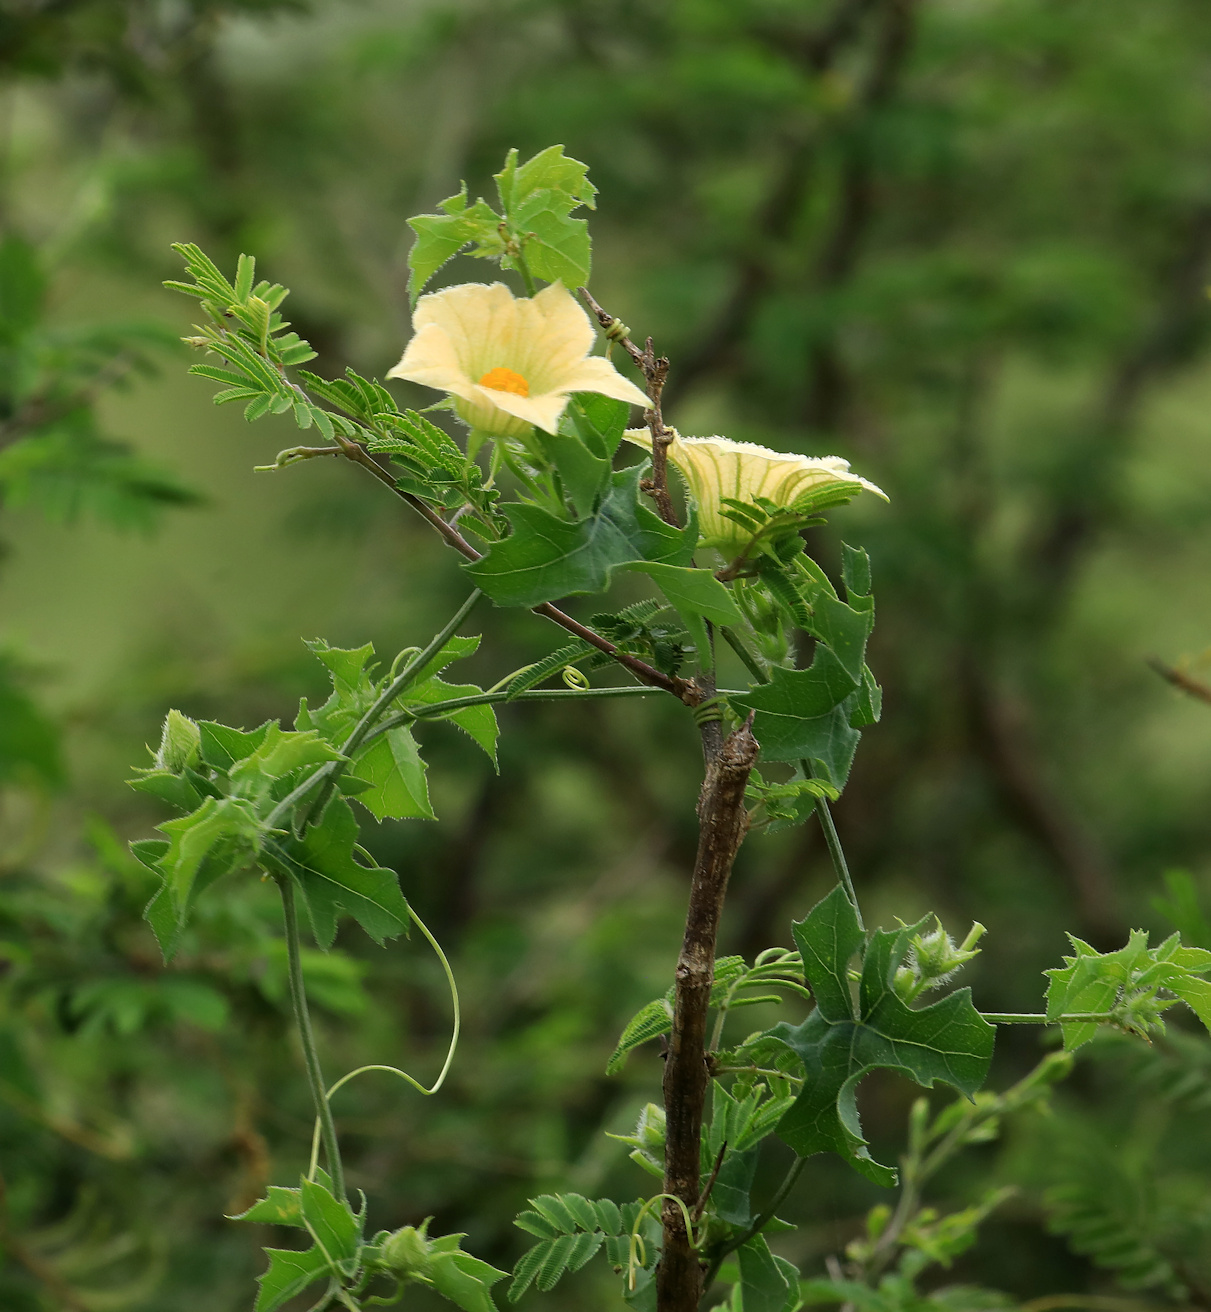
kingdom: Plantae
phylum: Tracheophyta
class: Magnoliopsida
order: Cucurbitales
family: Cucurbitaceae
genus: Coccinia
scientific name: Coccinia rehmannii
